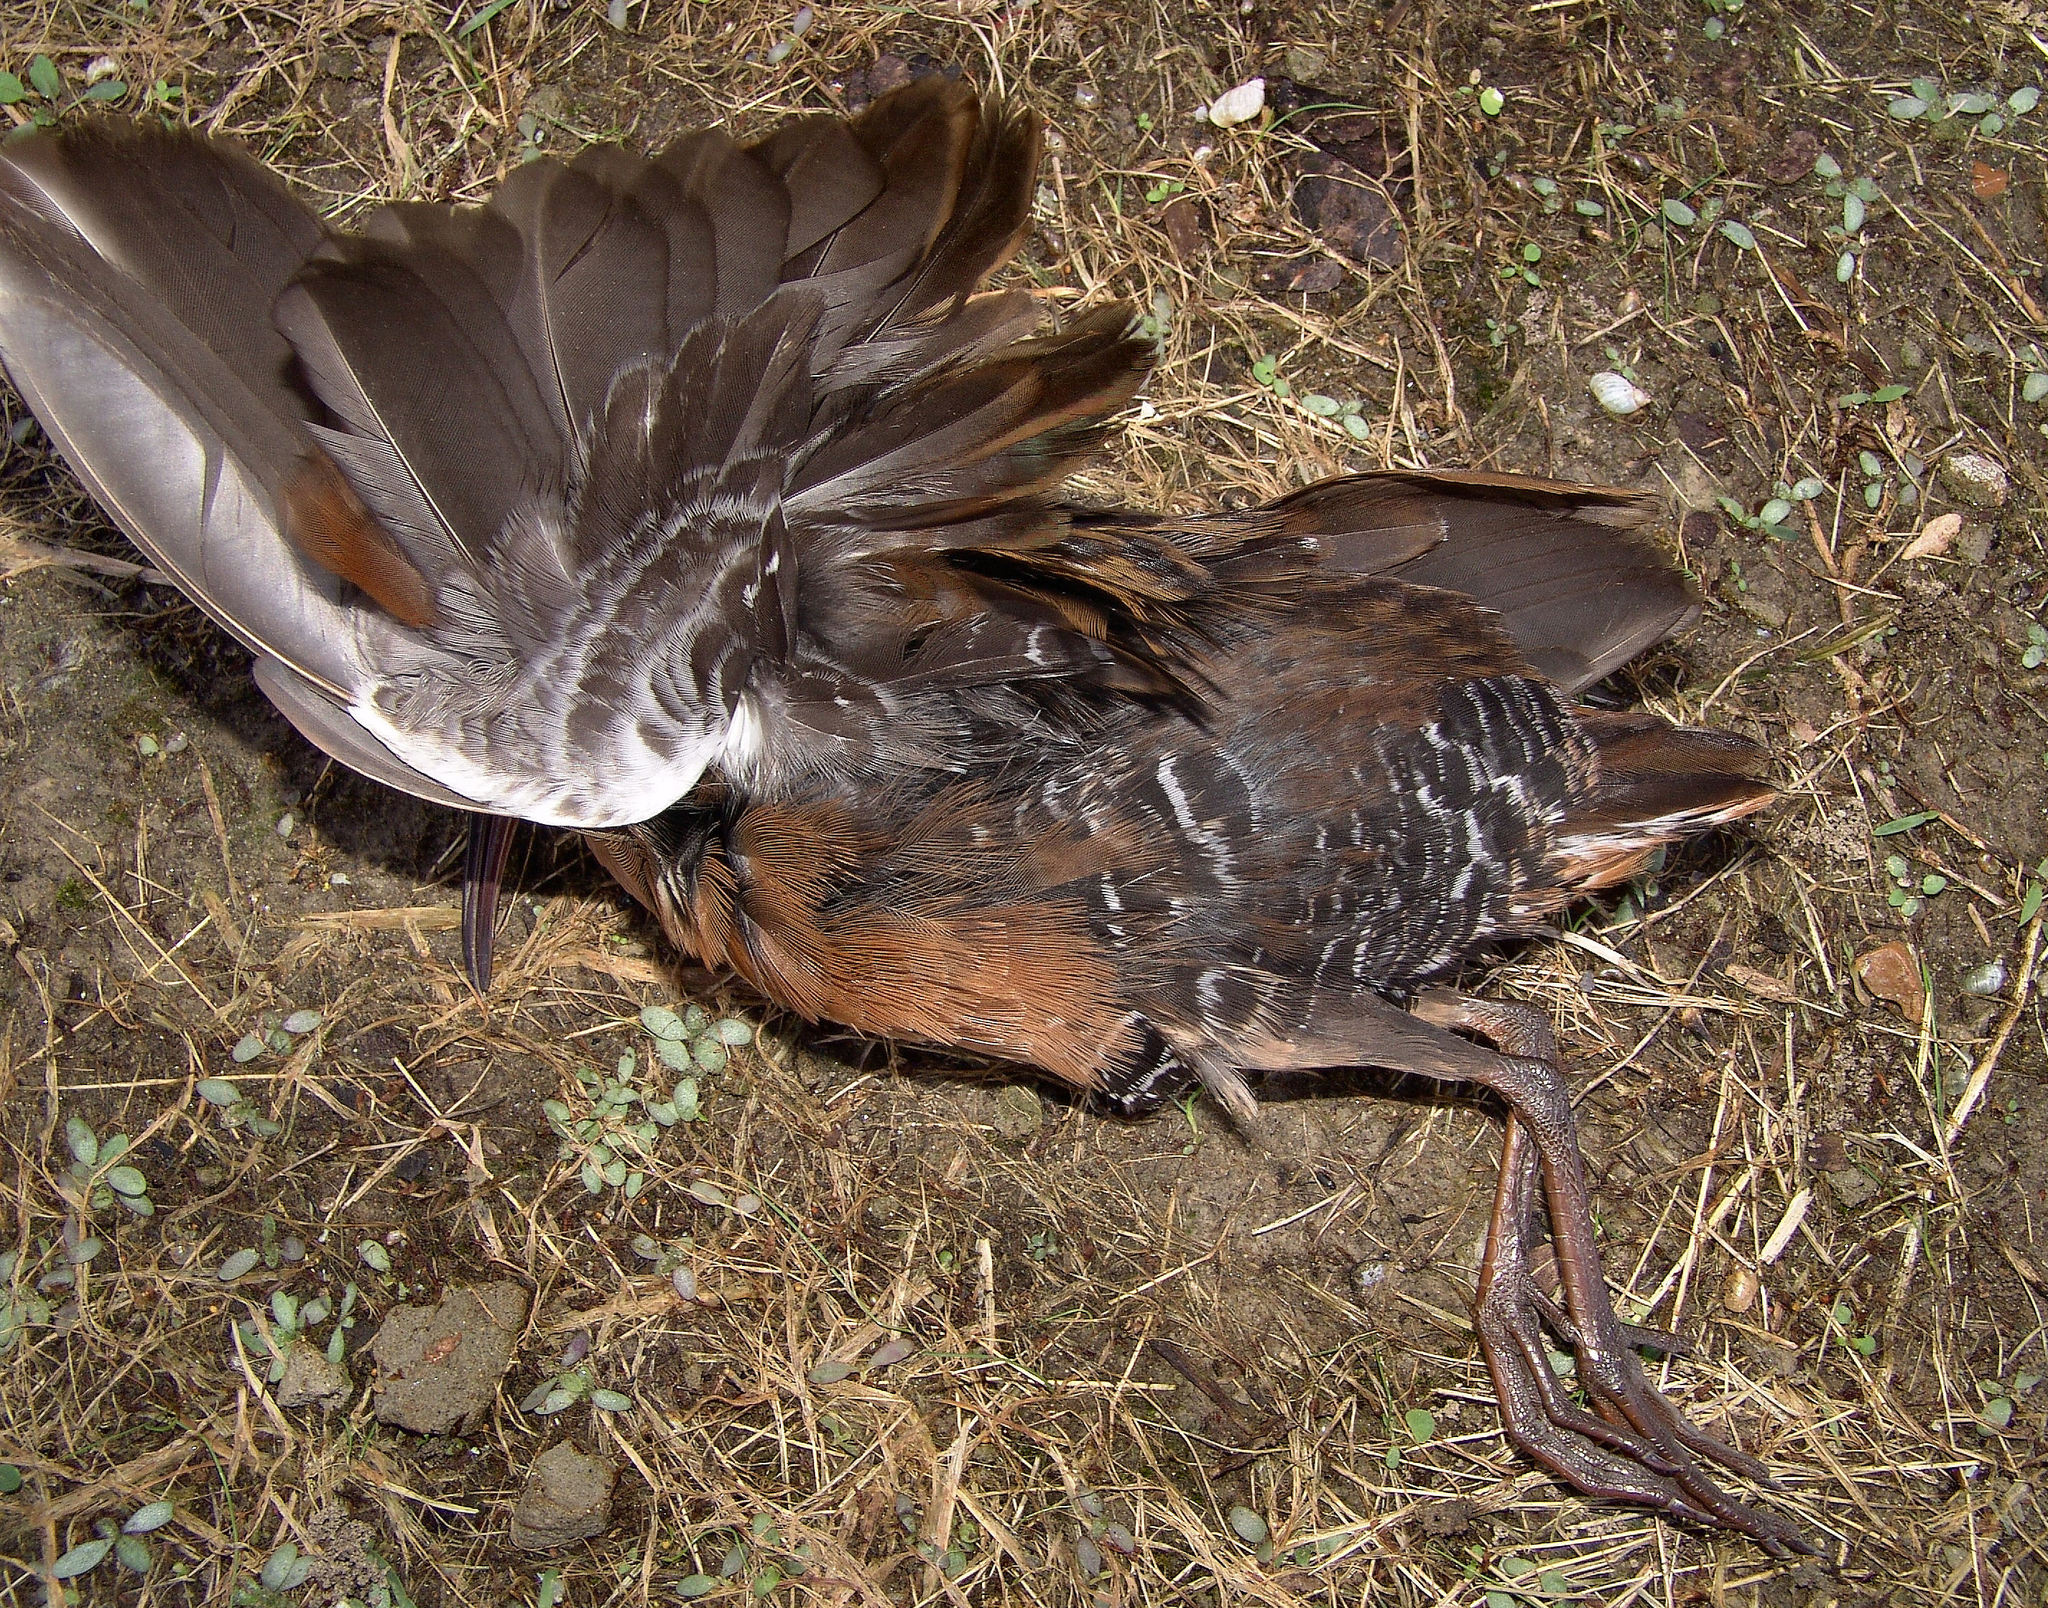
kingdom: Animalia
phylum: Chordata
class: Aves
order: Gruiformes
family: Rallidae
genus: Rallus
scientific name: Rallus limicola
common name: Virginia rail
